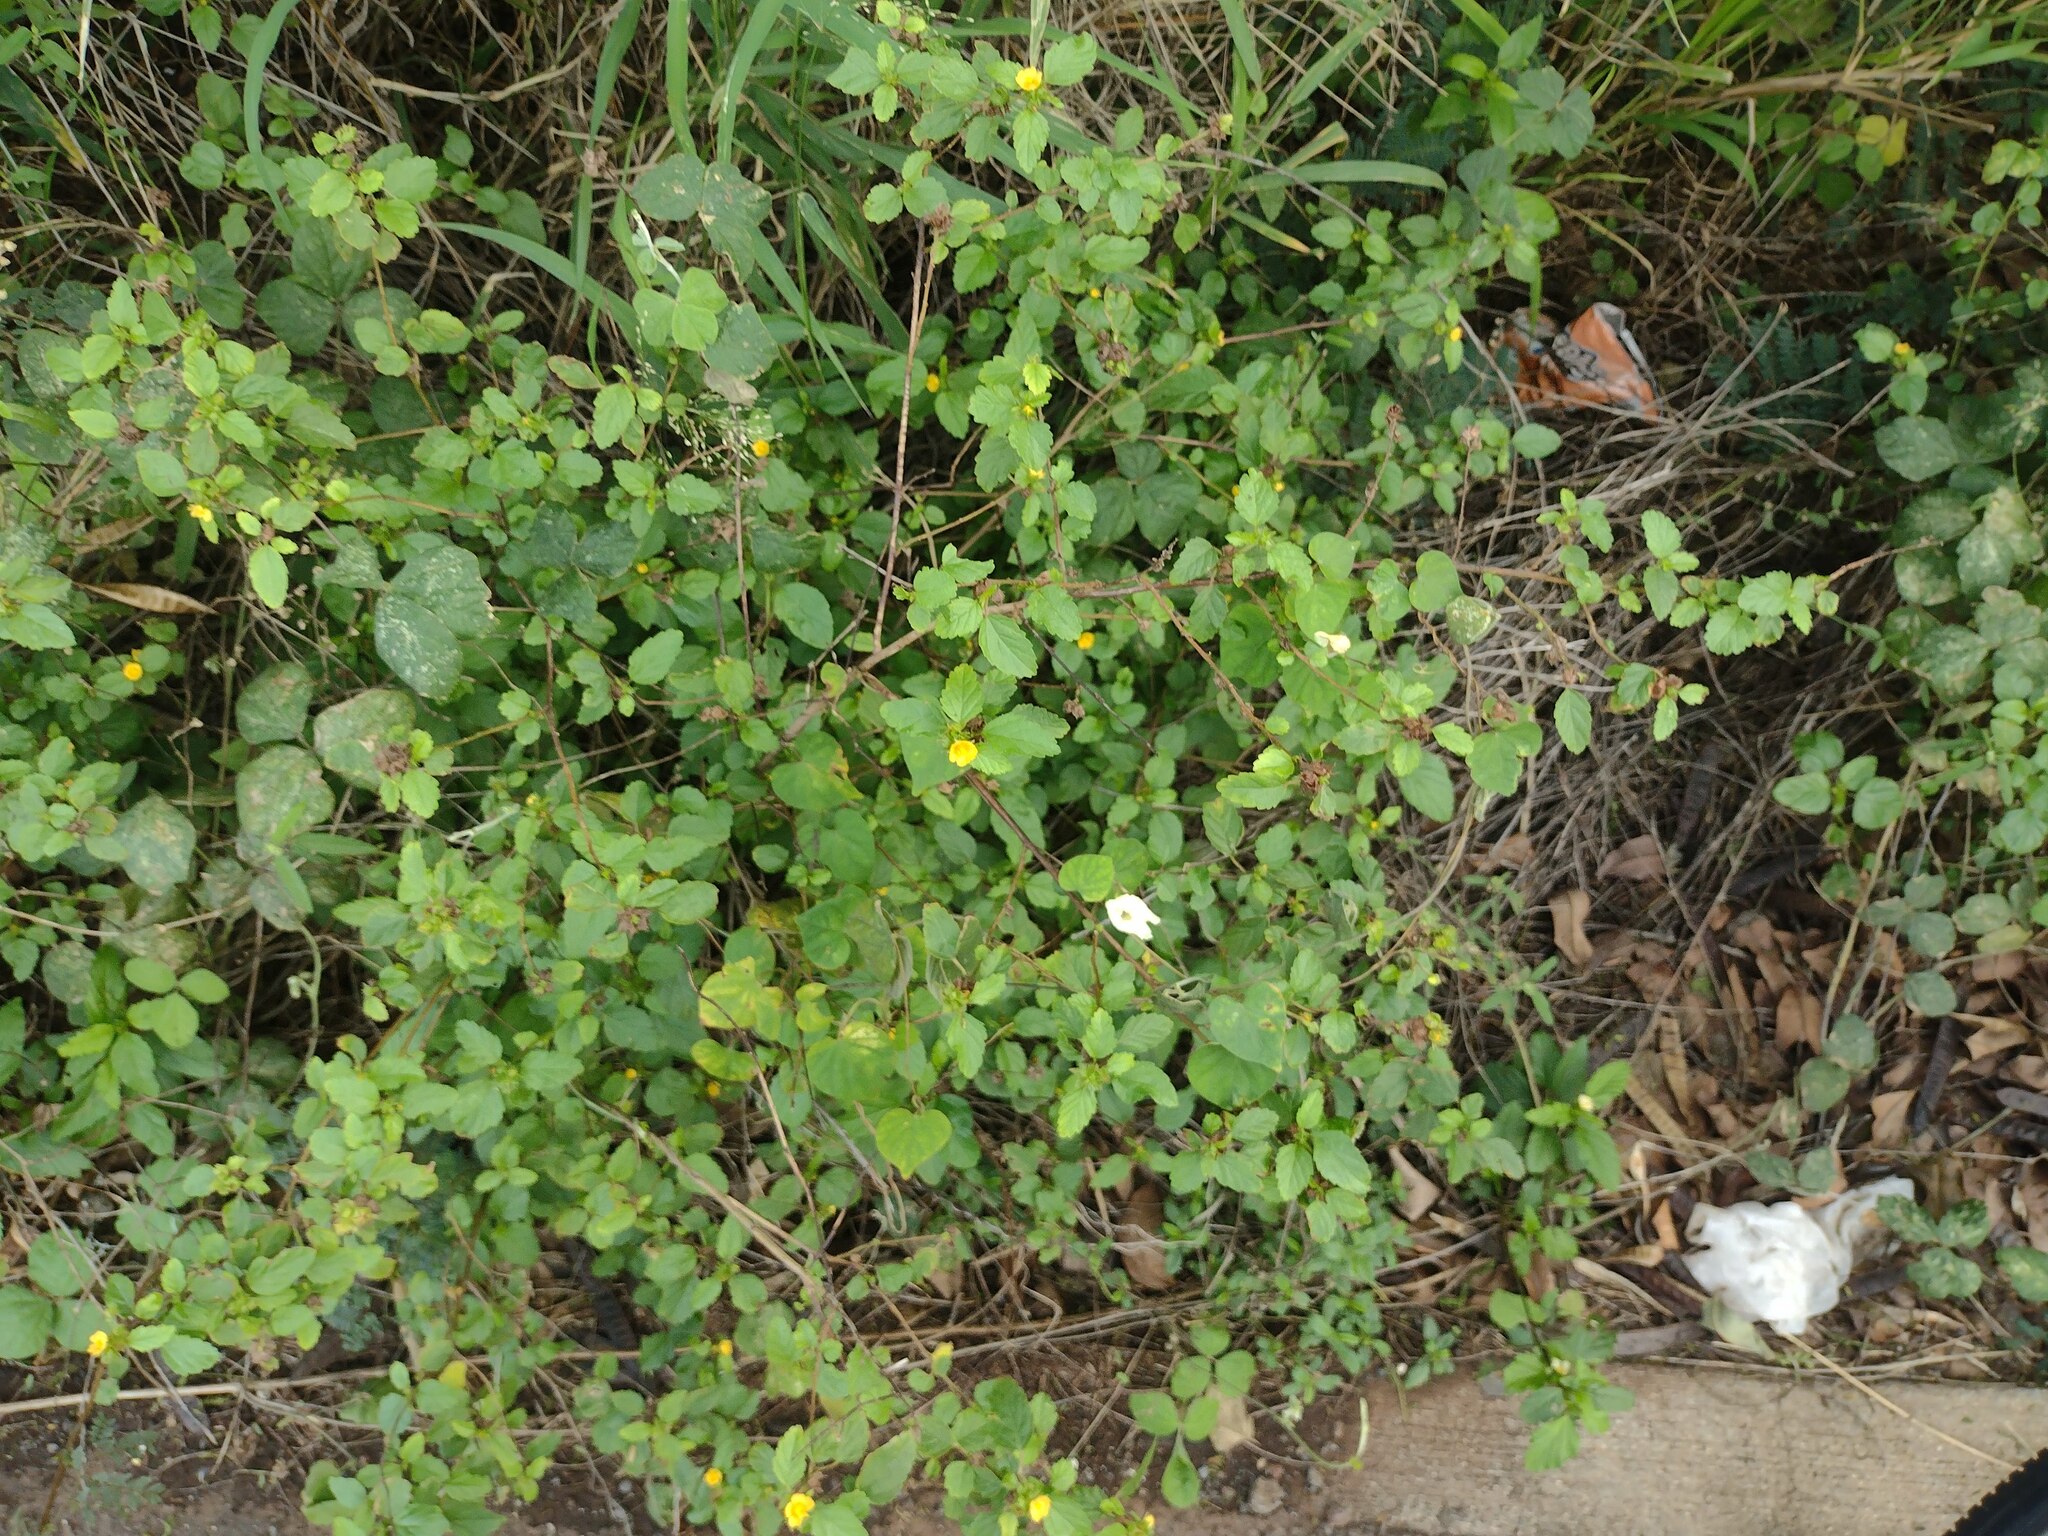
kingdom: Plantae
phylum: Tracheophyta
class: Magnoliopsida
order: Malvales
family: Malvaceae
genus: Malvastrum
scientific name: Malvastrum corchorifolium
